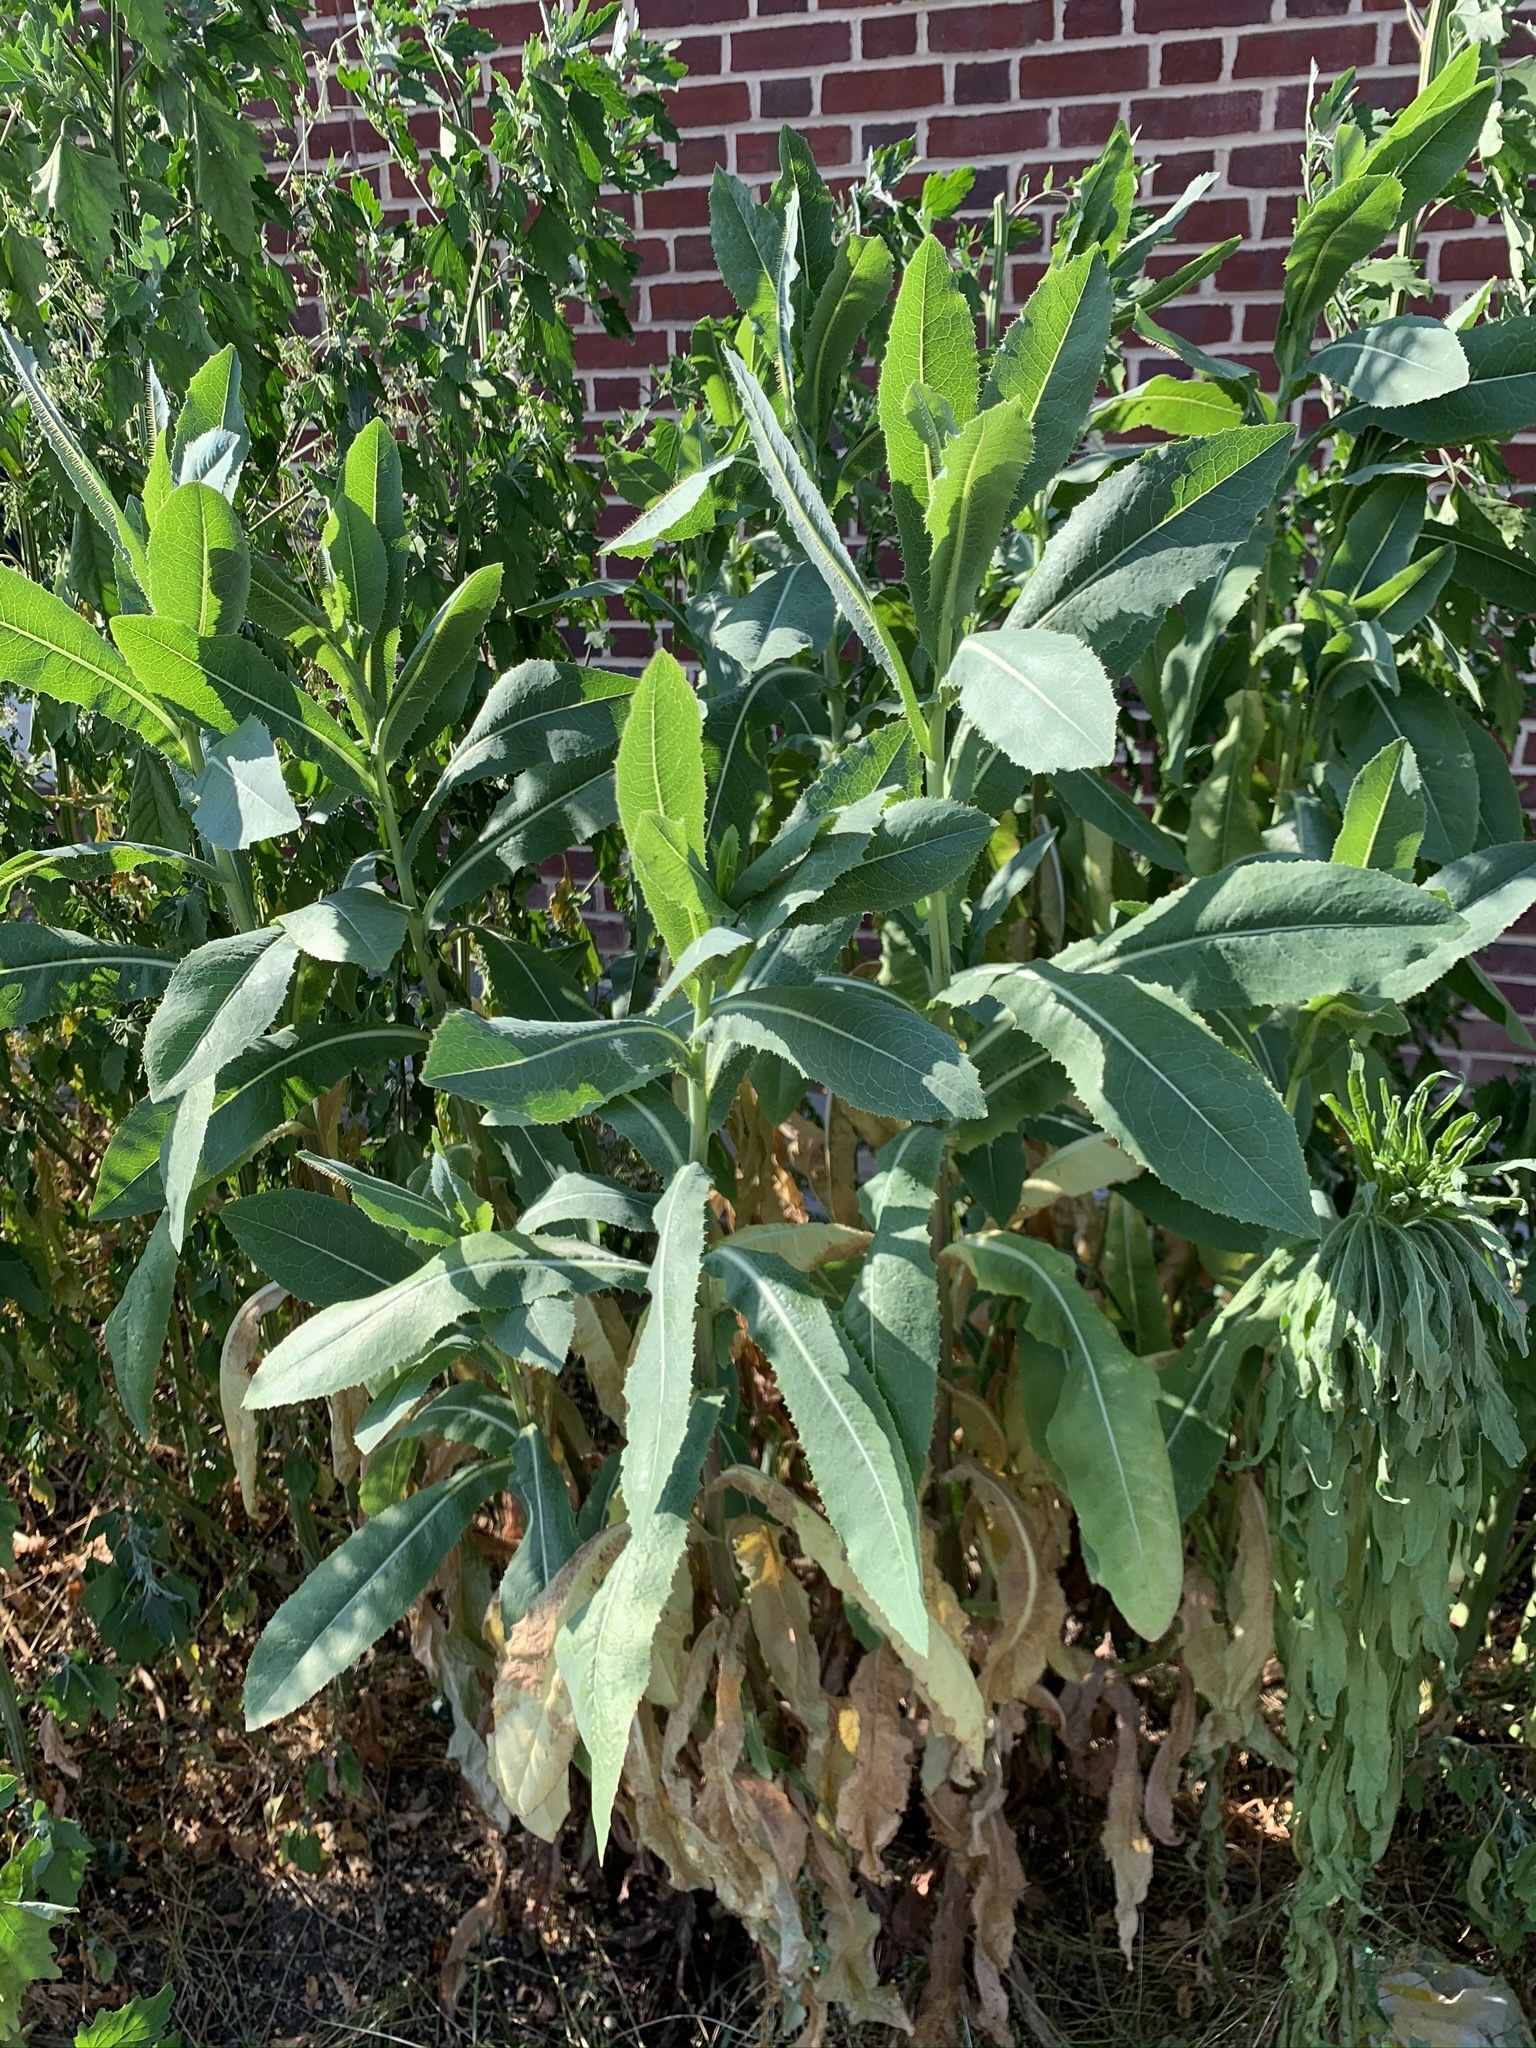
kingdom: Plantae
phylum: Tracheophyta
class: Magnoliopsida
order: Asterales
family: Asteraceae
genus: Lactuca
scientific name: Lactuca serriola
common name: Prickly lettuce
